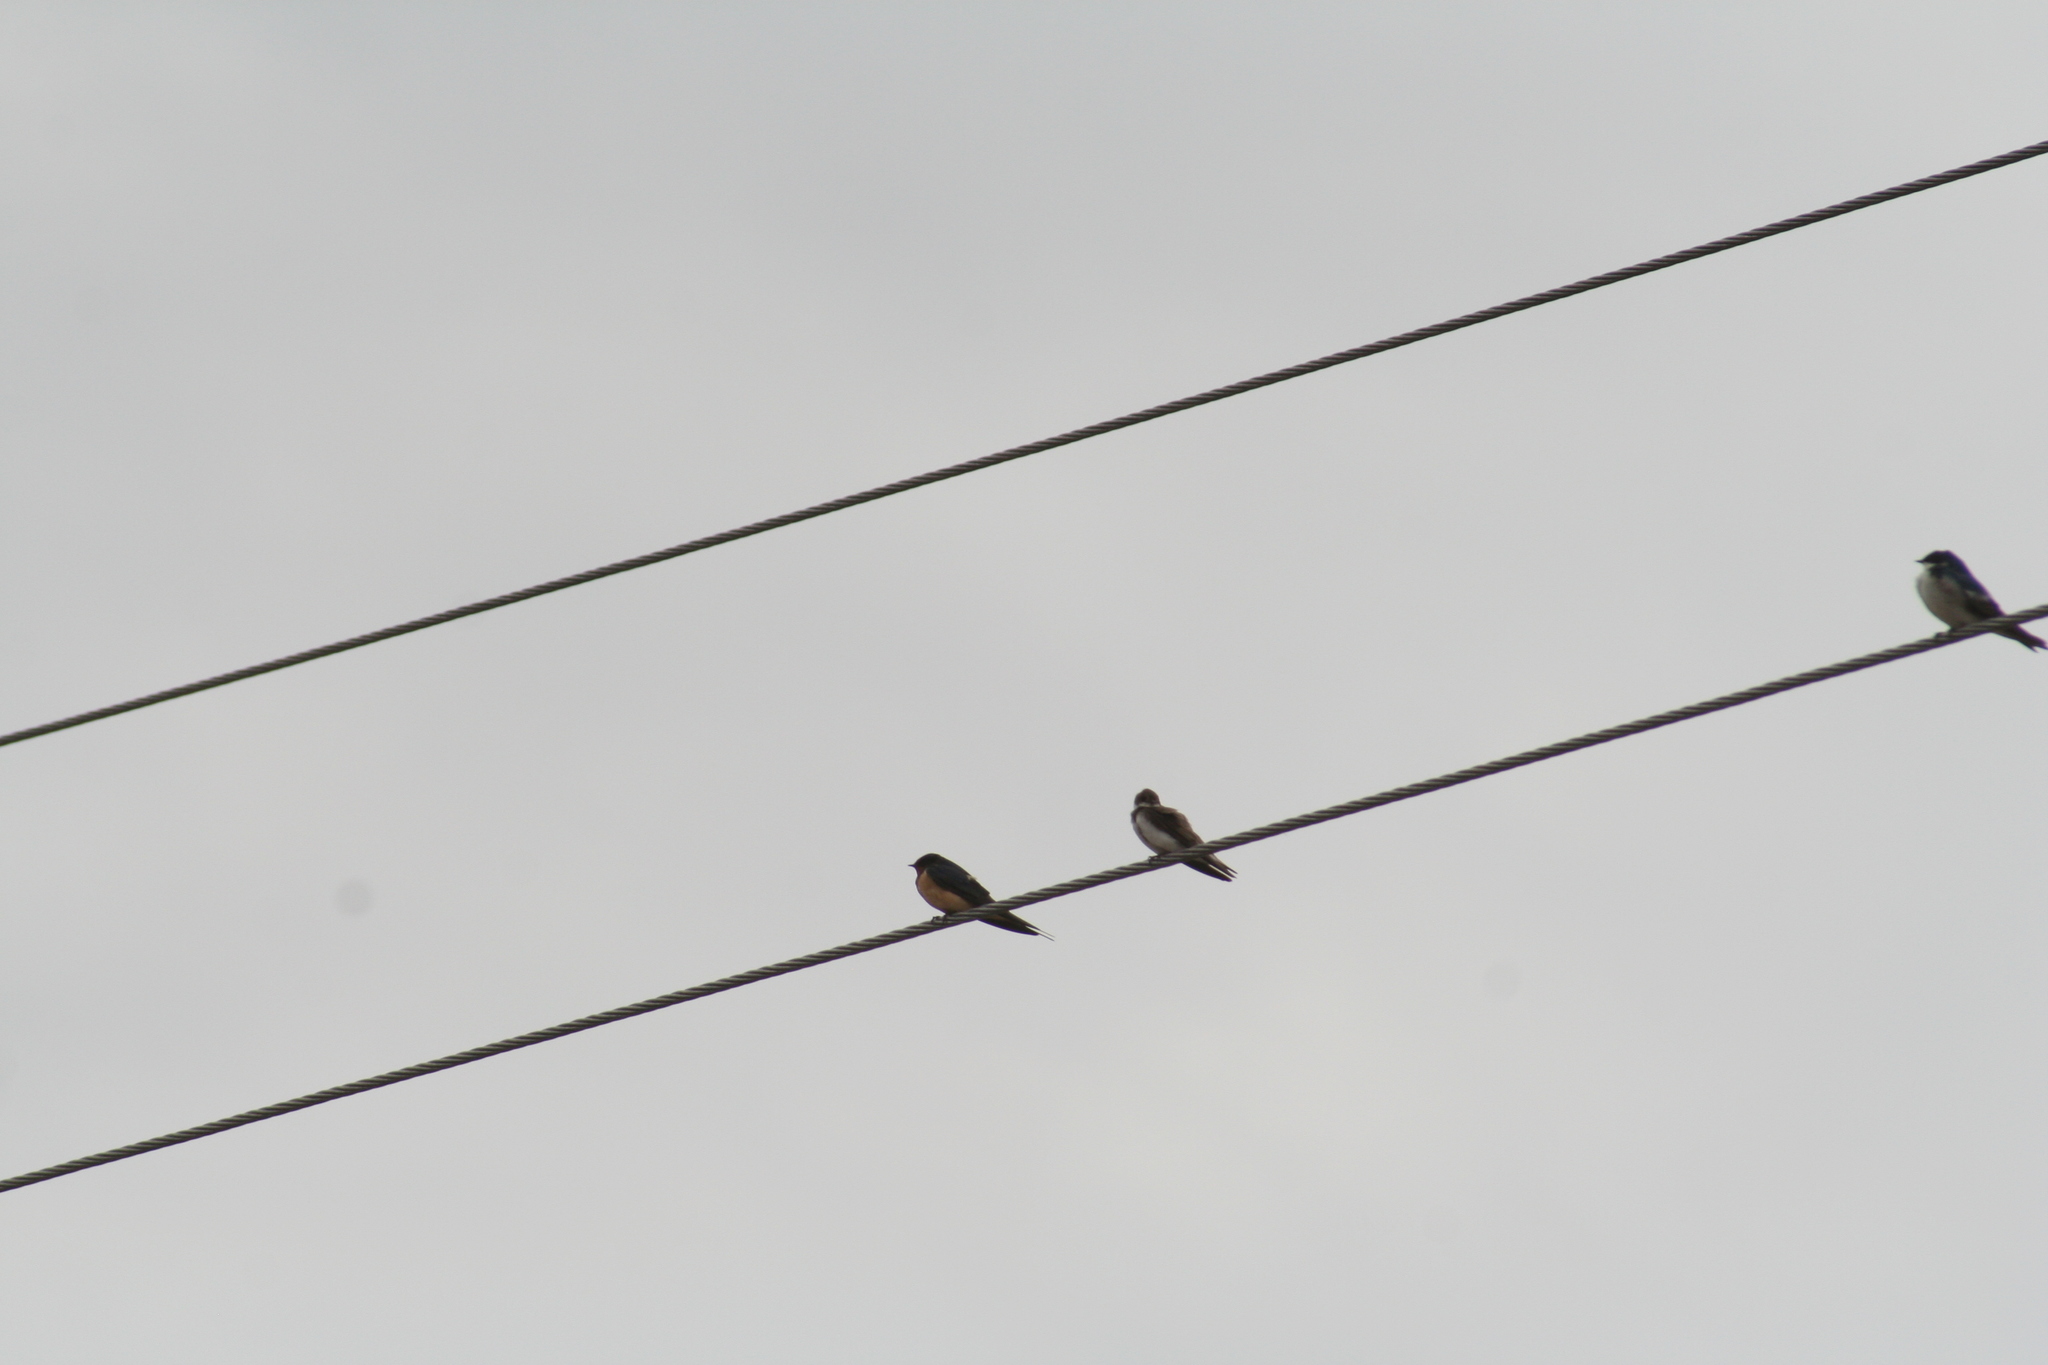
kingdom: Animalia
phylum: Chordata
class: Aves
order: Passeriformes
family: Hirundinidae
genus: Riparia
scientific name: Riparia riparia
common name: Sand martin
